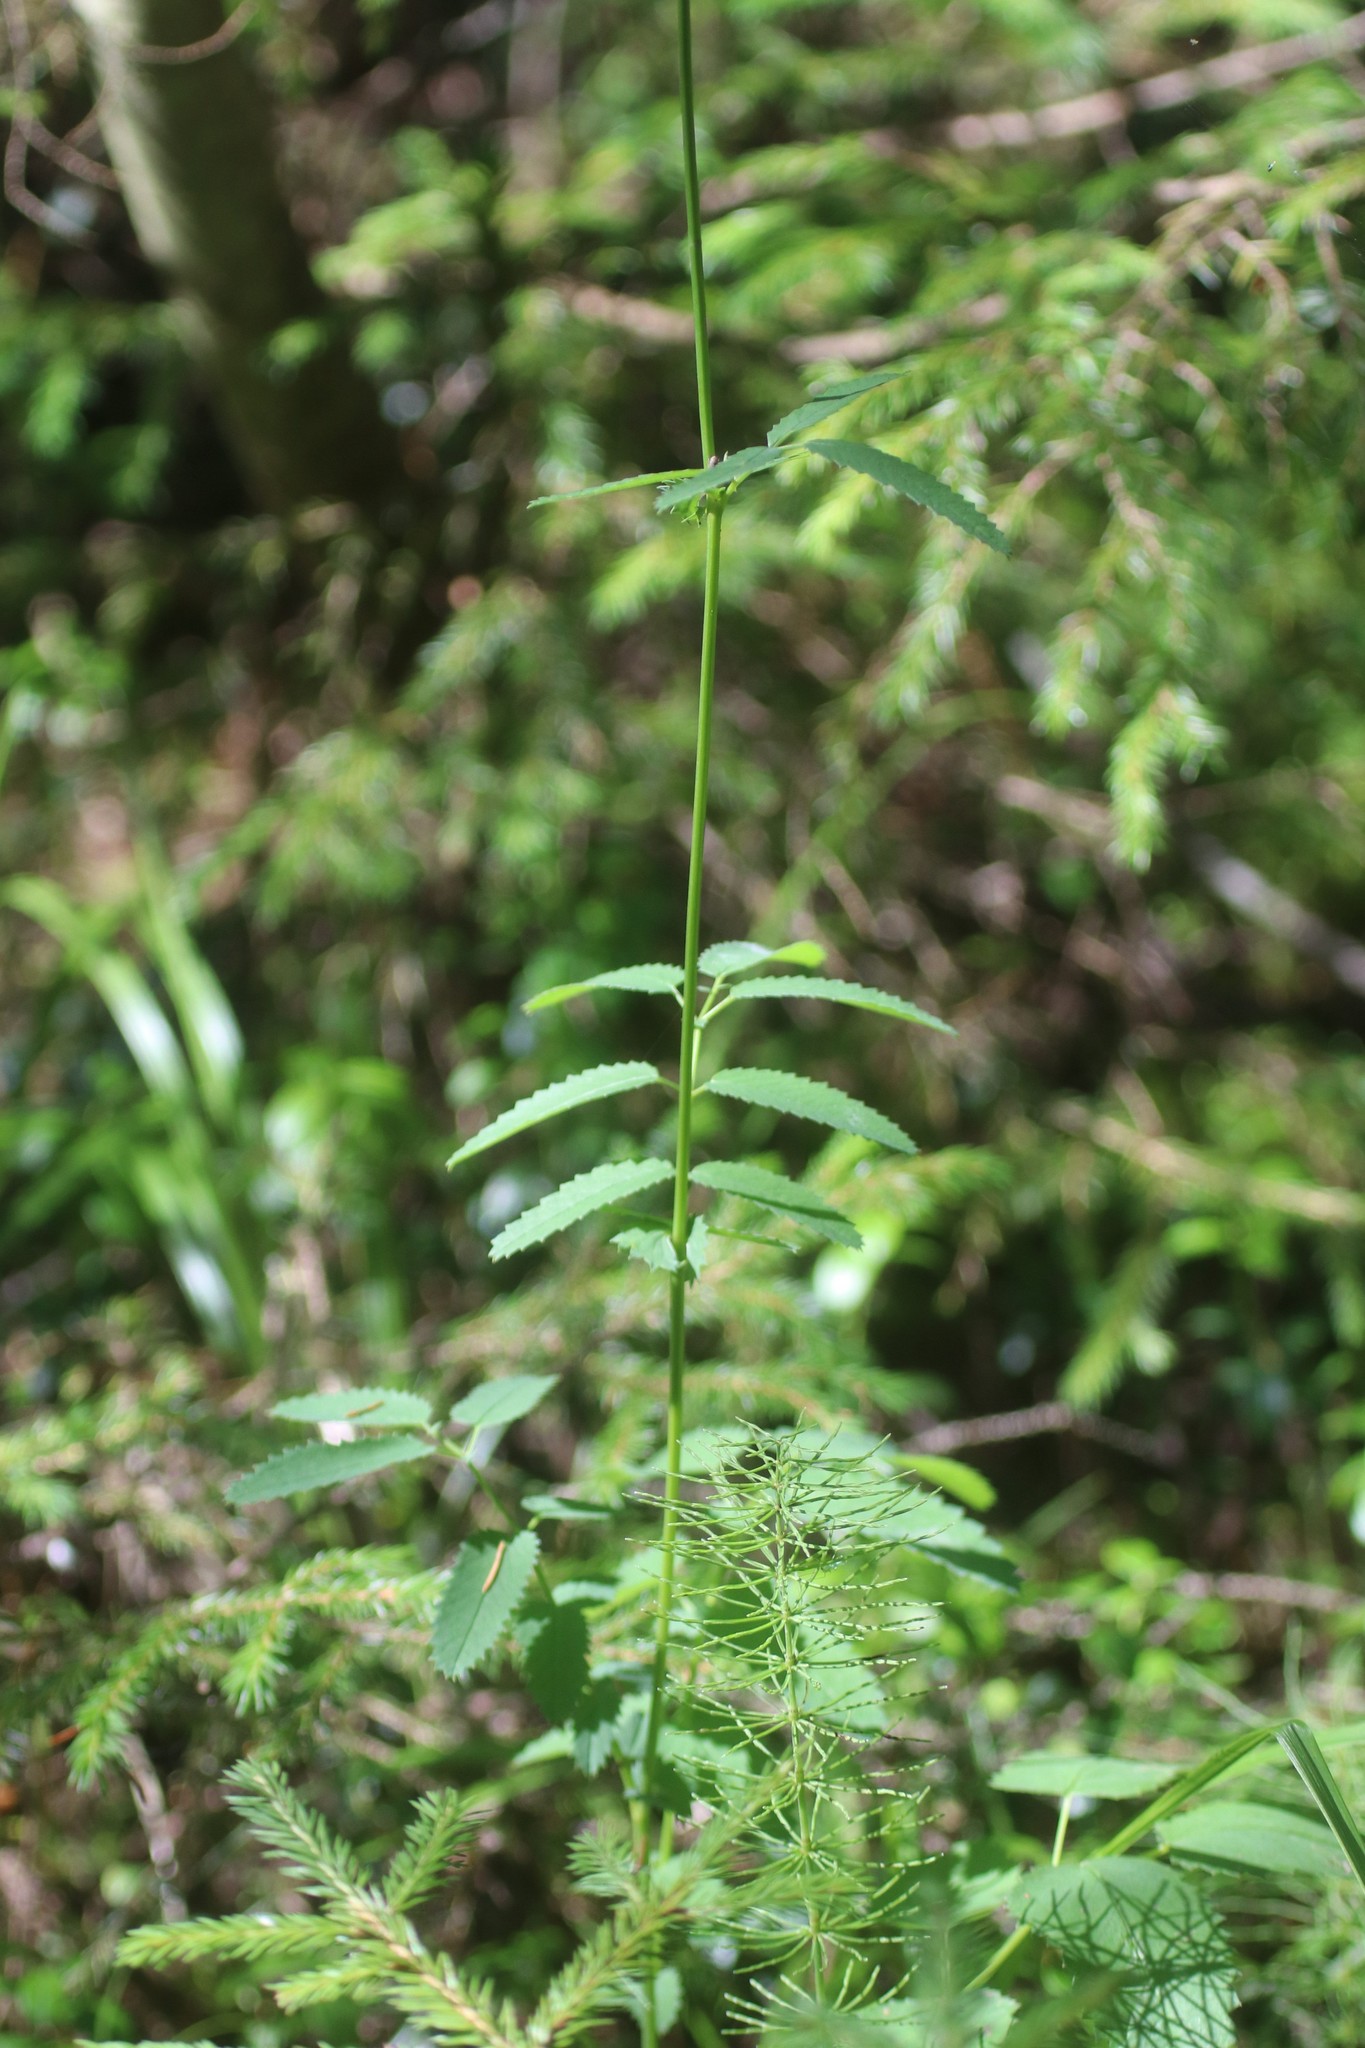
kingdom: Plantae
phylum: Tracheophyta
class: Magnoliopsida
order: Rosales
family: Rosaceae
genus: Sanguisorba
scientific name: Sanguisorba officinalis
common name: Great burnet
